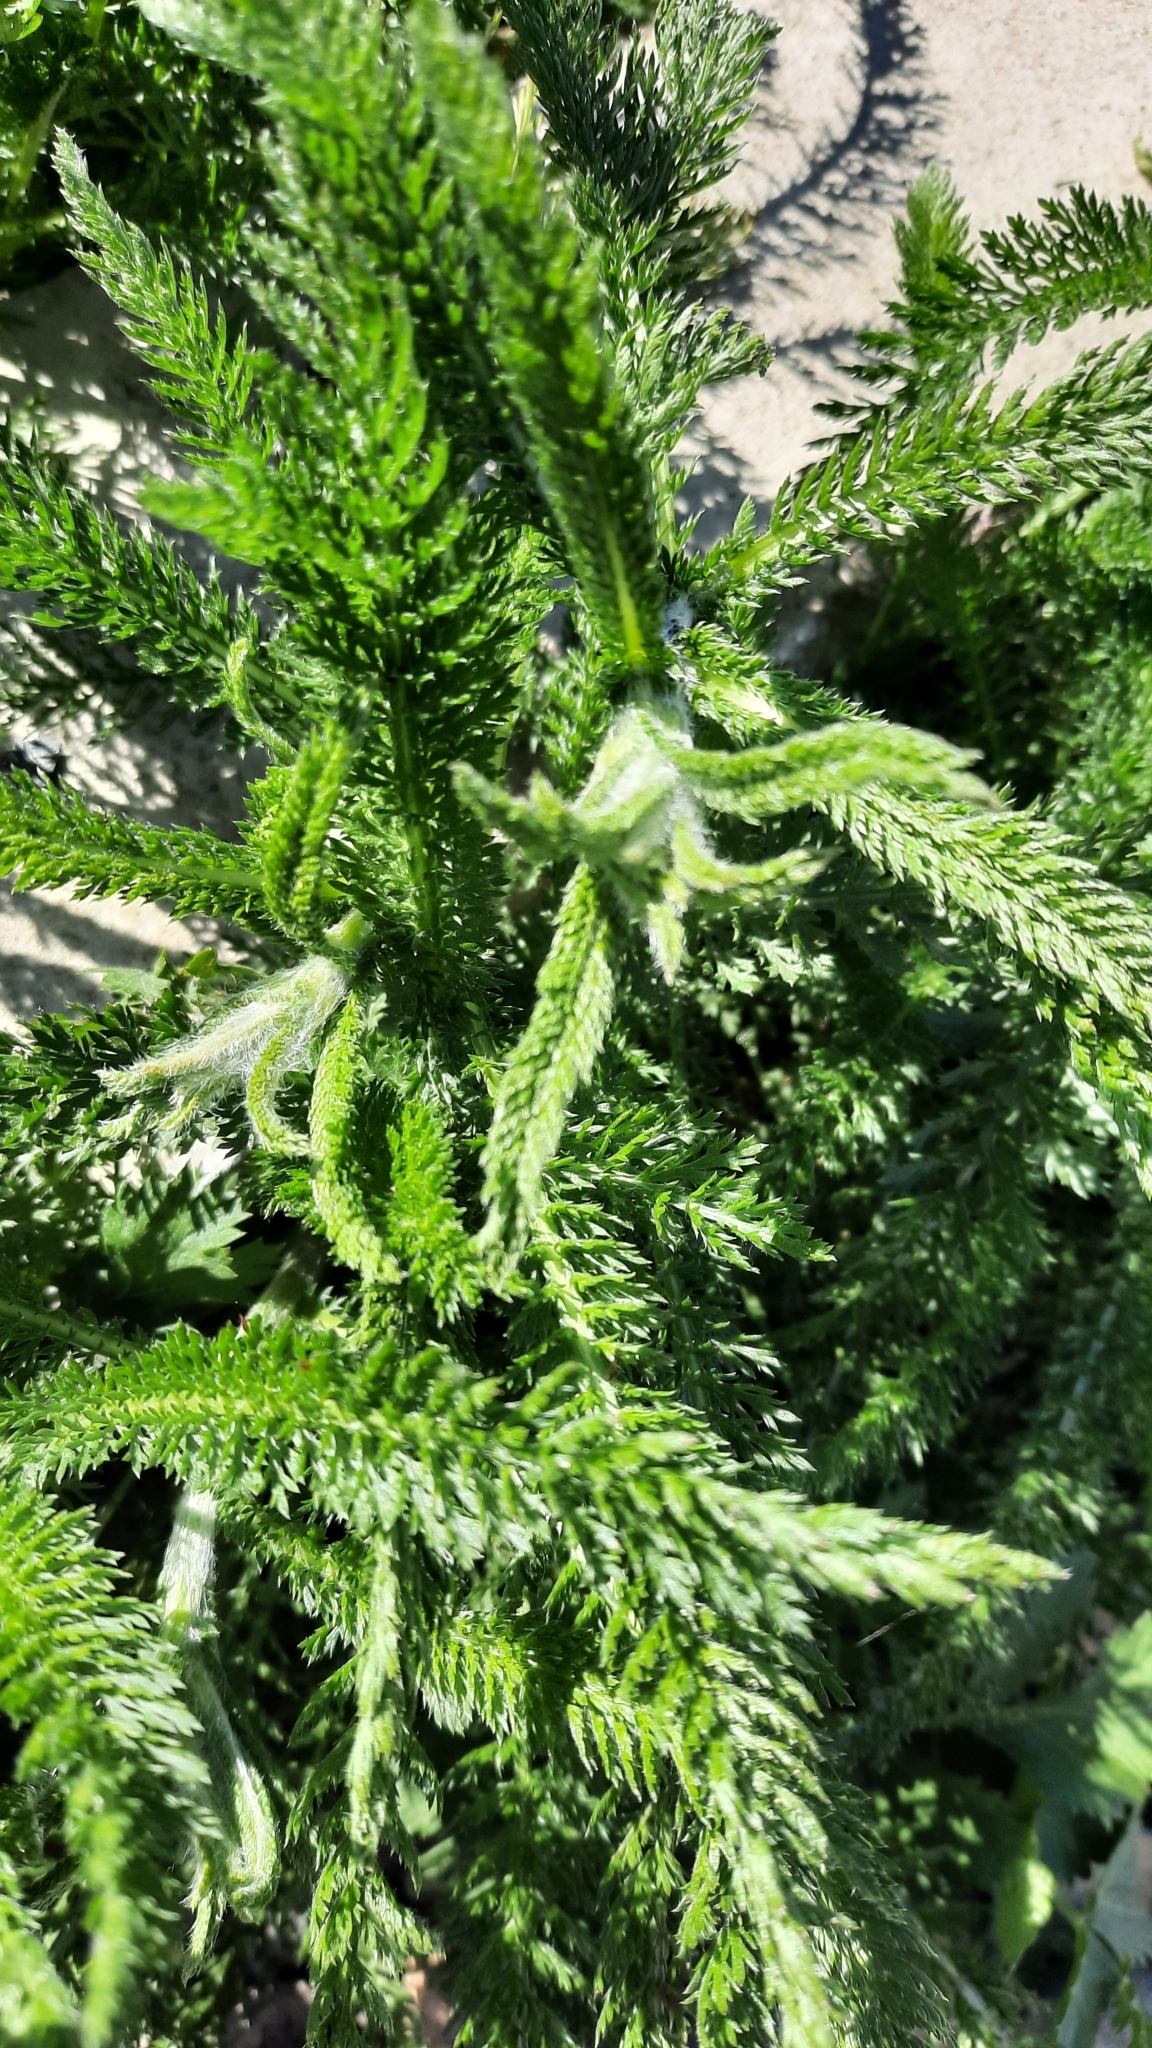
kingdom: Plantae
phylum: Tracheophyta
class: Magnoliopsida
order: Asterales
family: Asteraceae
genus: Achillea
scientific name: Achillea millefolium
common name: Yarrow
